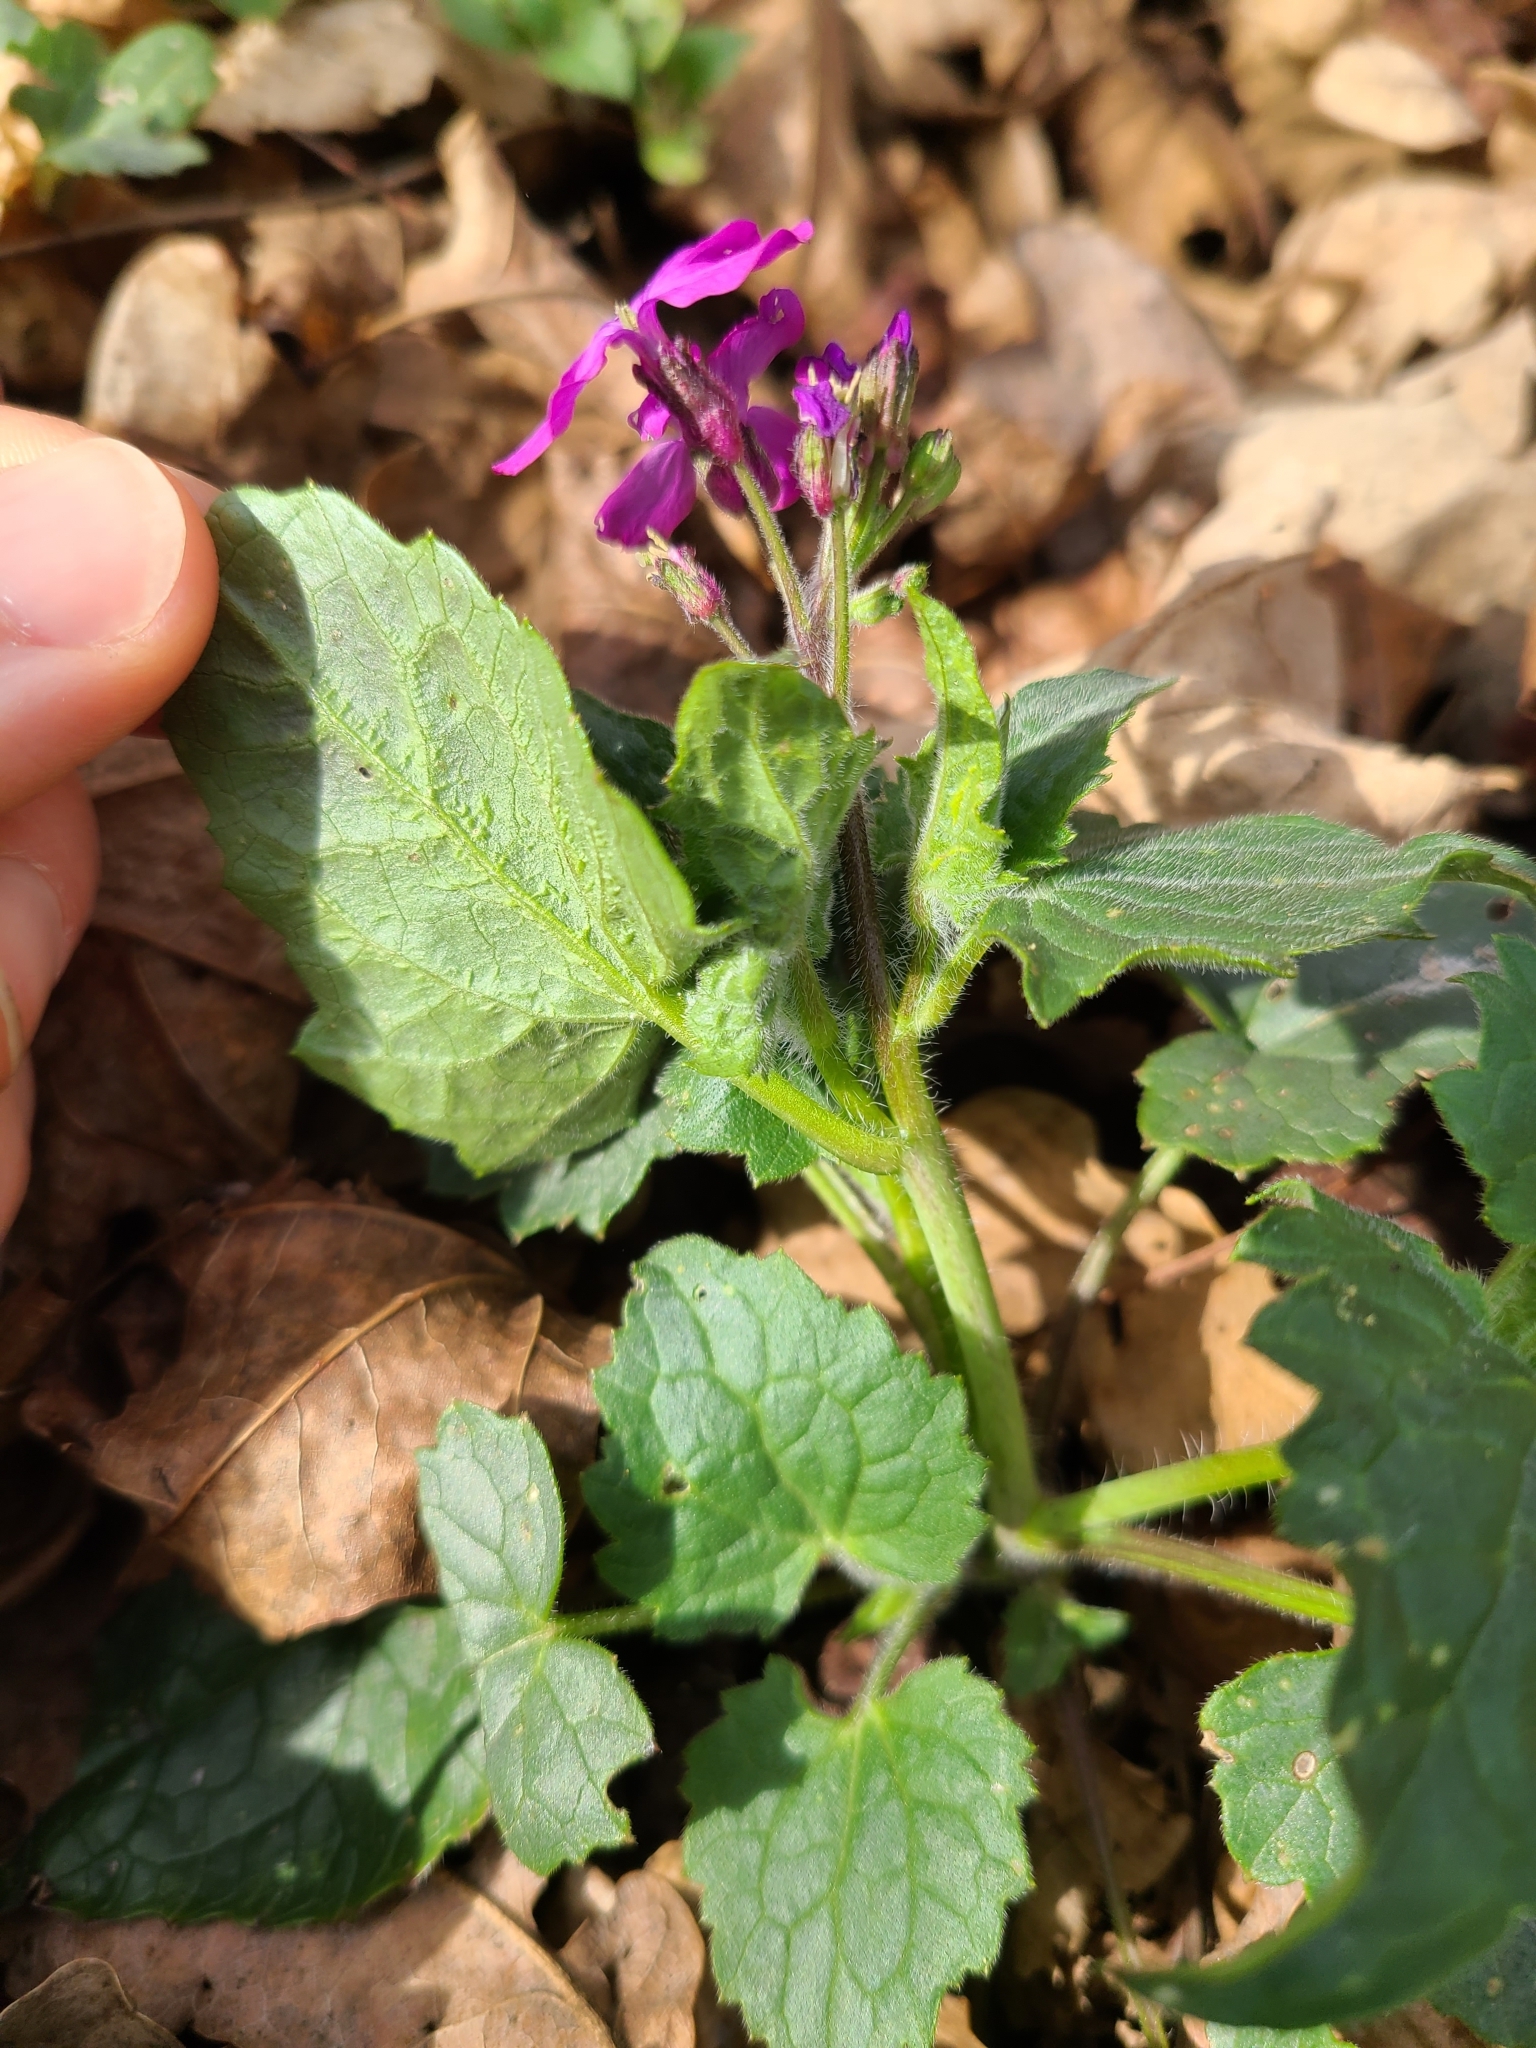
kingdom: Plantae
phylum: Tracheophyta
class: Magnoliopsida
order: Brassicales
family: Brassicaceae
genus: Lunaria
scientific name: Lunaria annua
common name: Honesty
